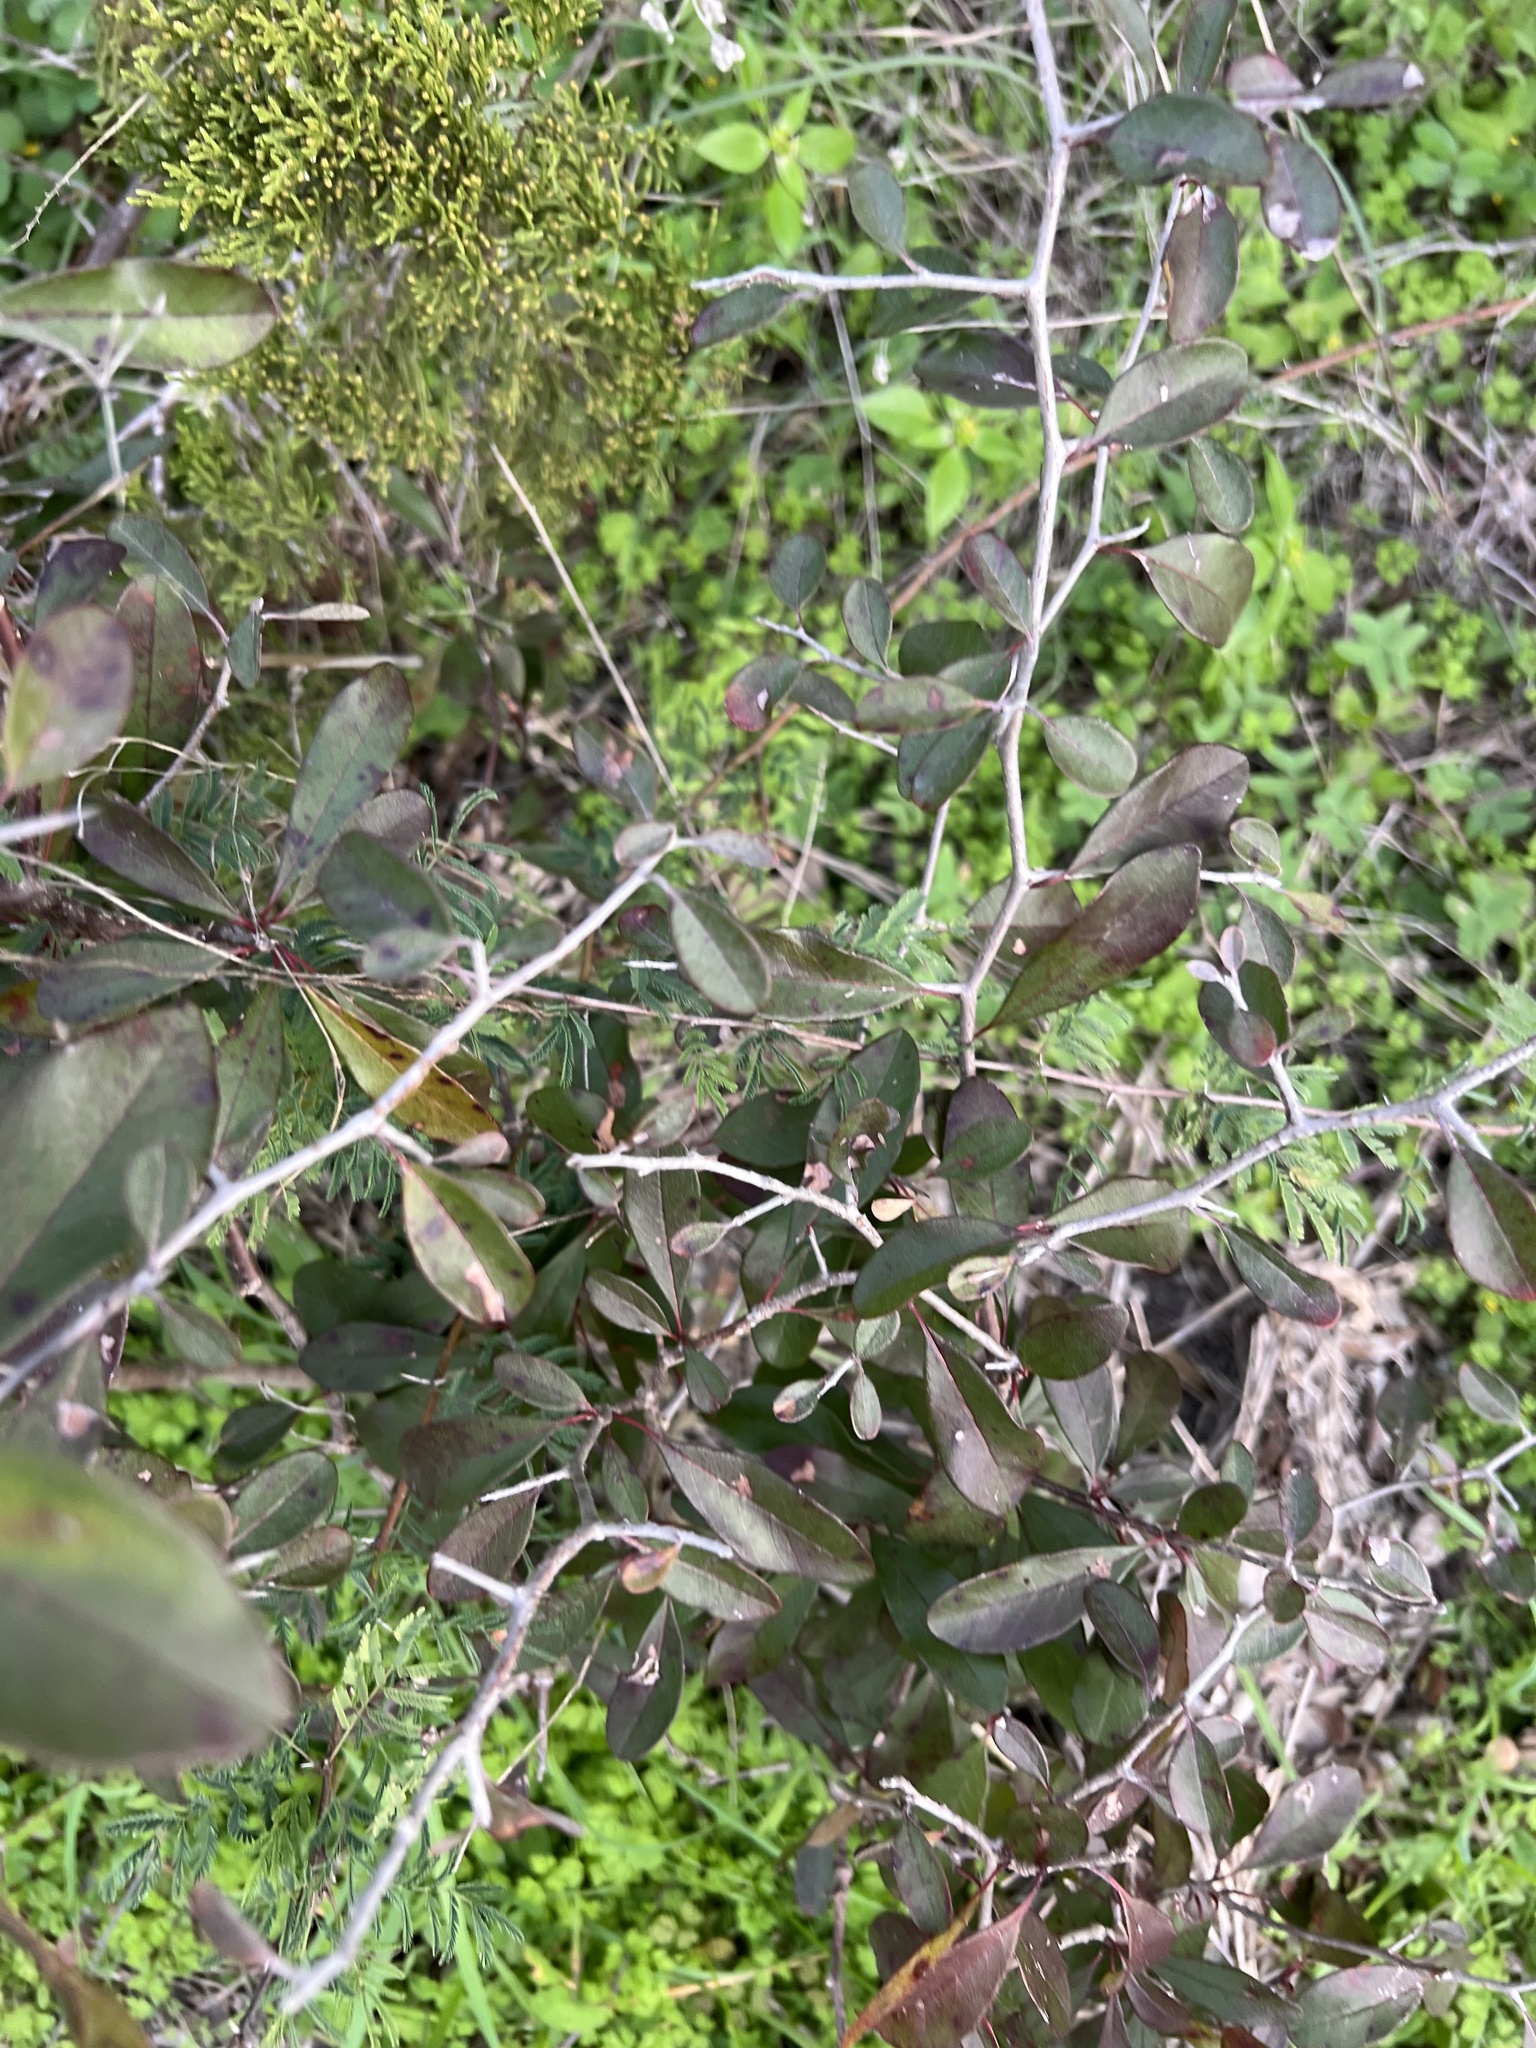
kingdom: Plantae
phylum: Tracheophyta
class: Magnoliopsida
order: Ericales
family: Sapotaceae
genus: Sideroxylon
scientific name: Sideroxylon lanuginosum
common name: Chittamwood
